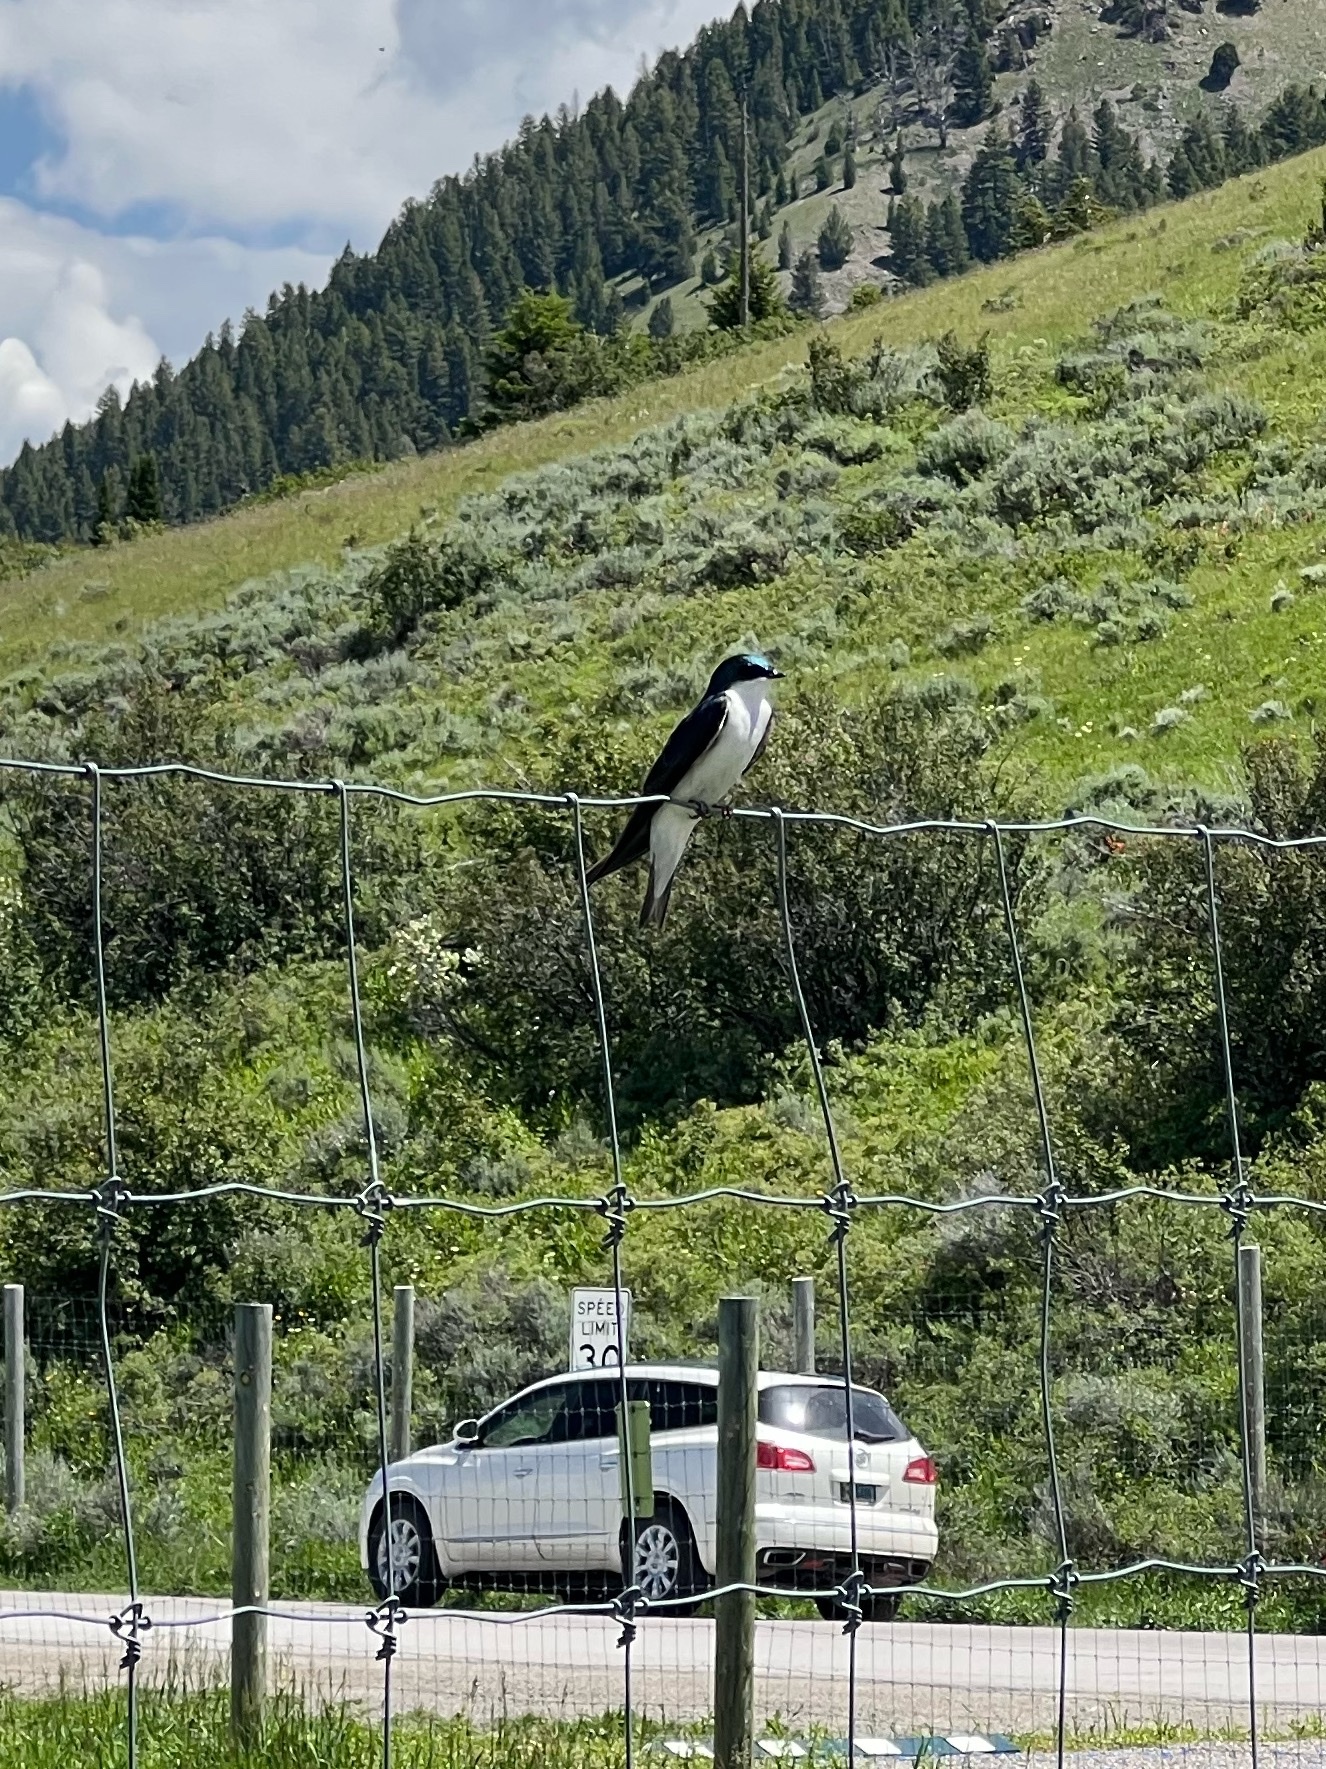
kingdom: Animalia
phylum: Chordata
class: Aves
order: Passeriformes
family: Hirundinidae
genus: Tachycineta
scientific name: Tachycineta bicolor
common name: Tree swallow
